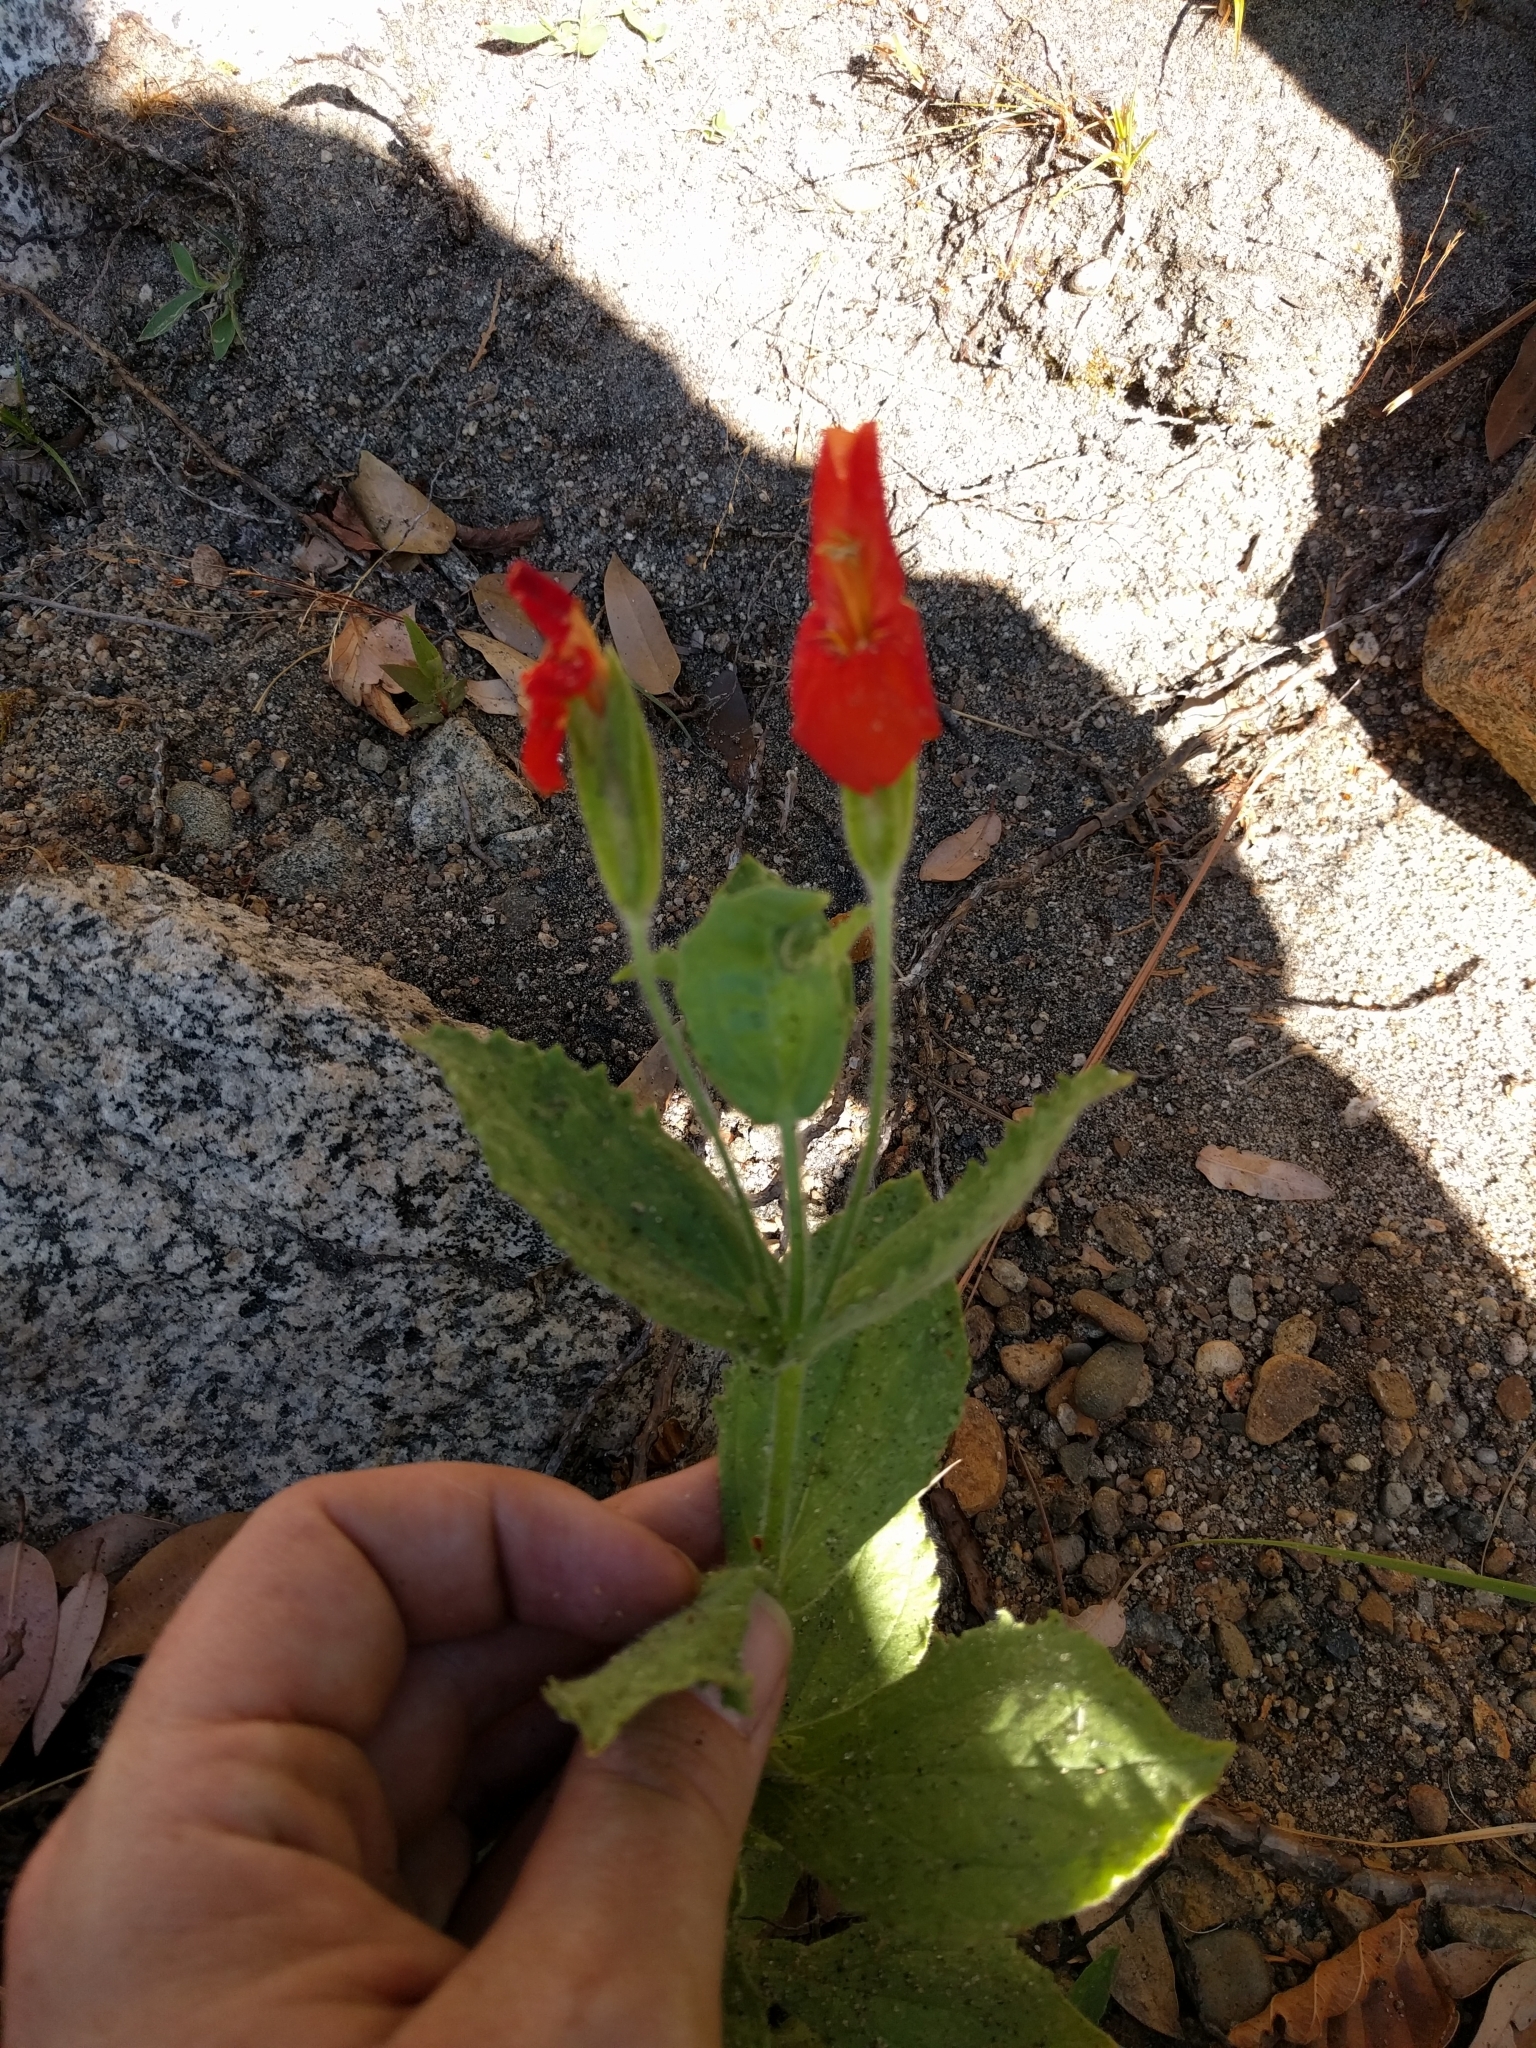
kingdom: Plantae
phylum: Tracheophyta
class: Magnoliopsida
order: Lamiales
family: Phrymaceae
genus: Erythranthe
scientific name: Erythranthe cardinalis
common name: Scarlet monkey-flower
